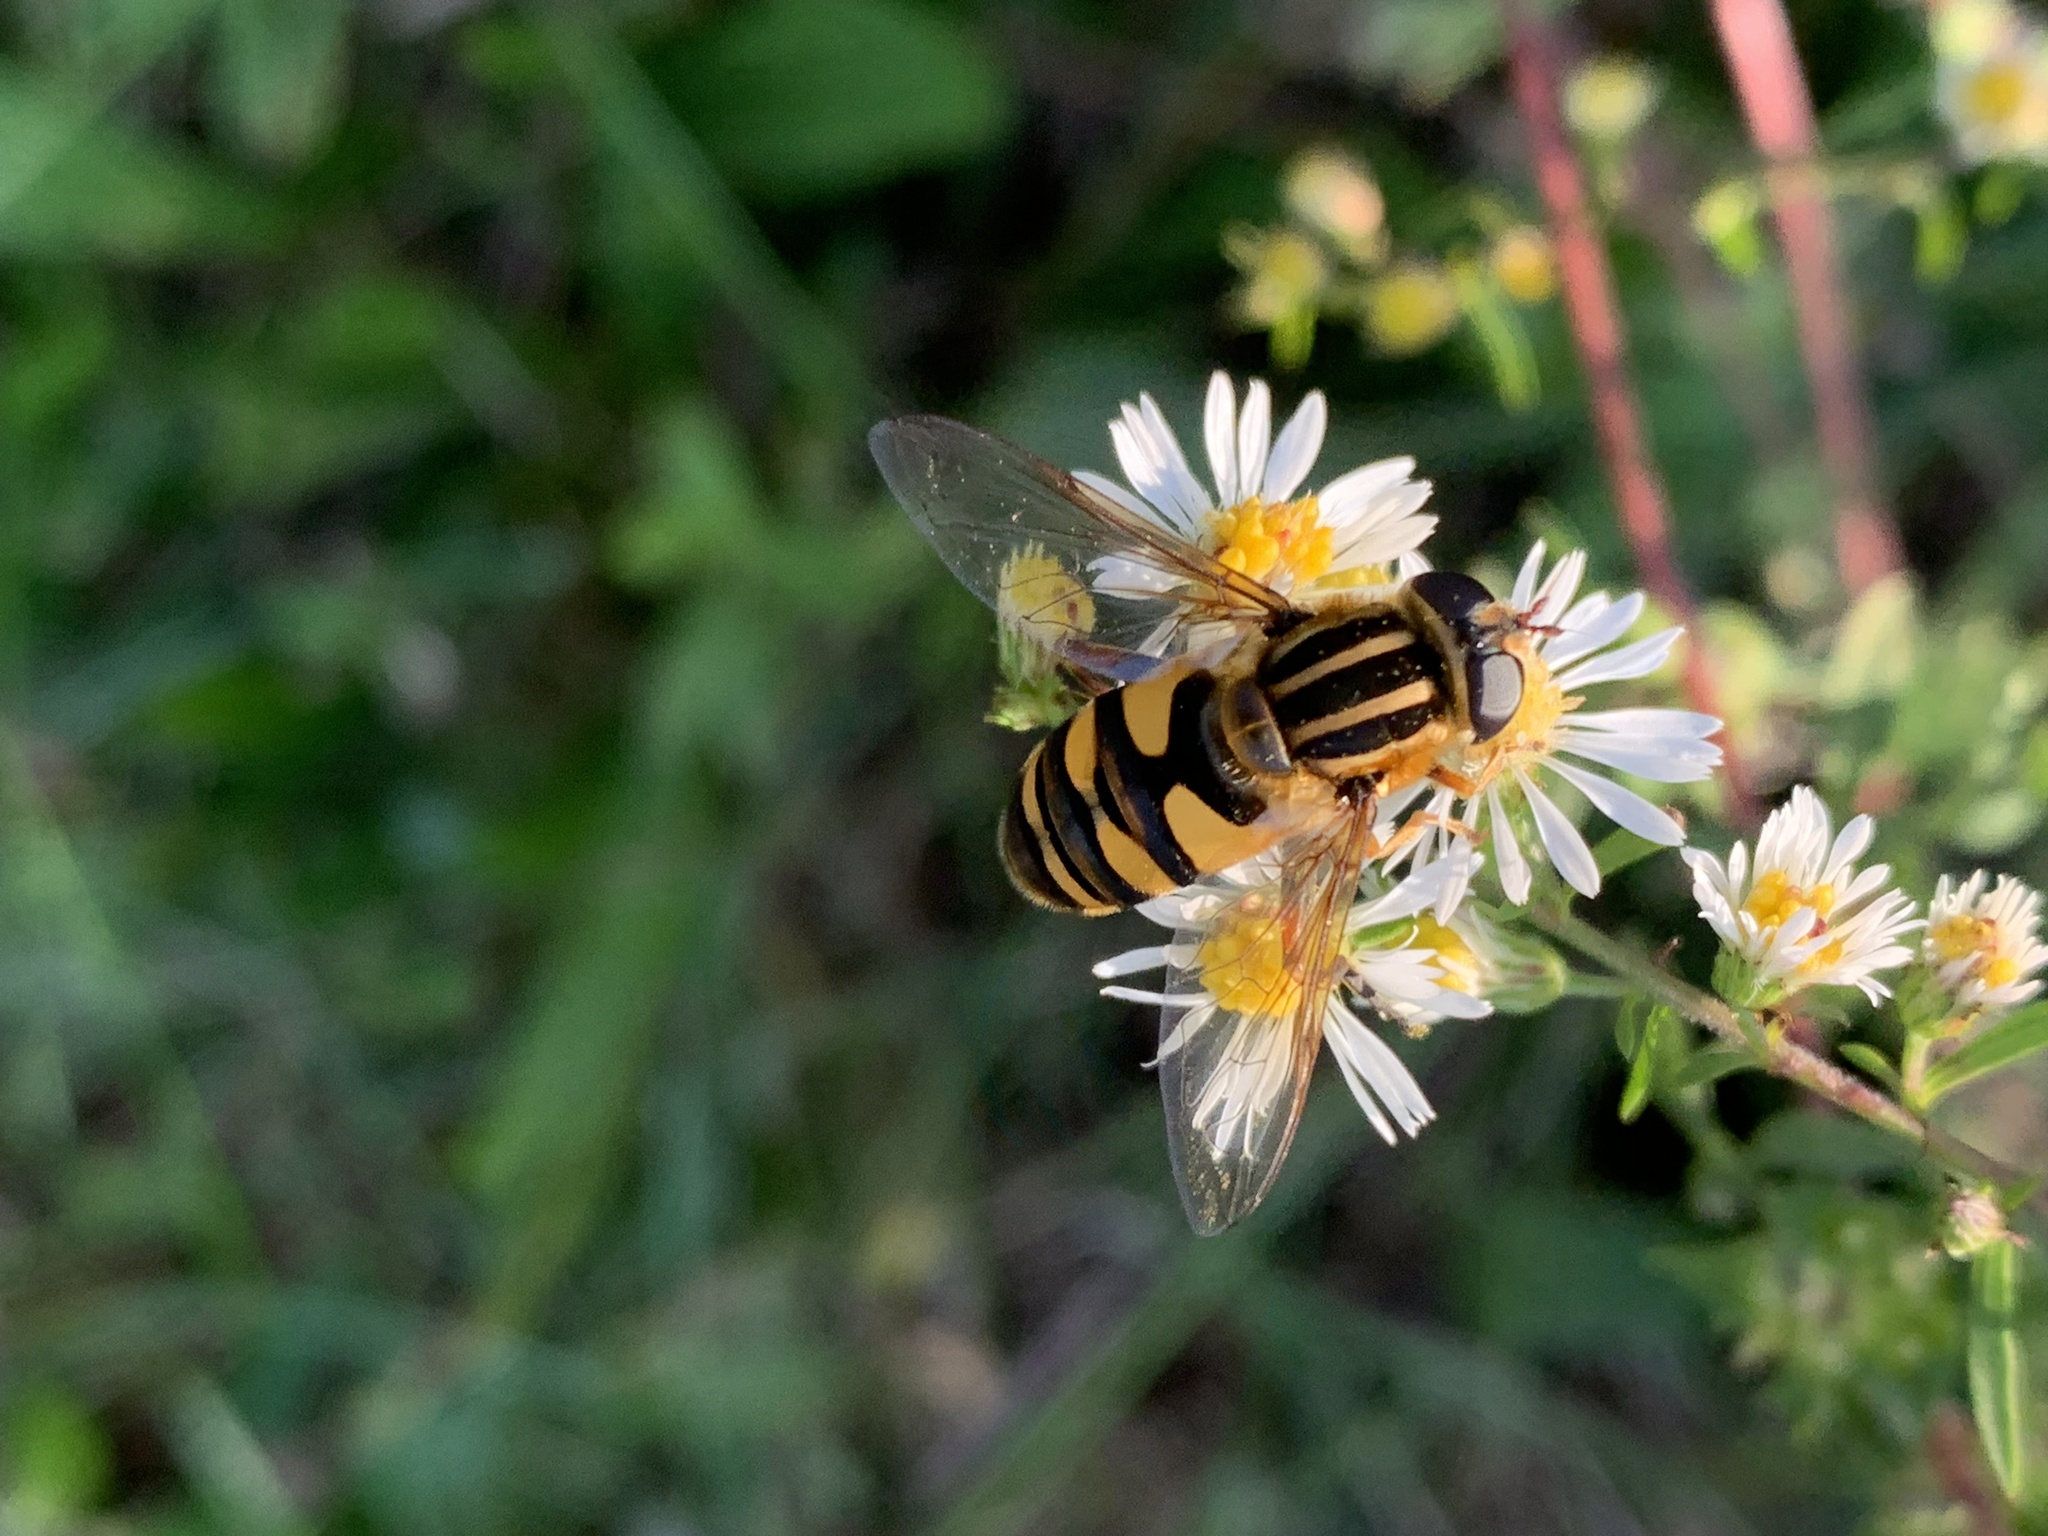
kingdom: Animalia
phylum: Arthropoda
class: Insecta
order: Diptera
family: Syrphidae
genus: Helophilus
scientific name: Helophilus fasciatus
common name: Narrow-headed marsh fly
